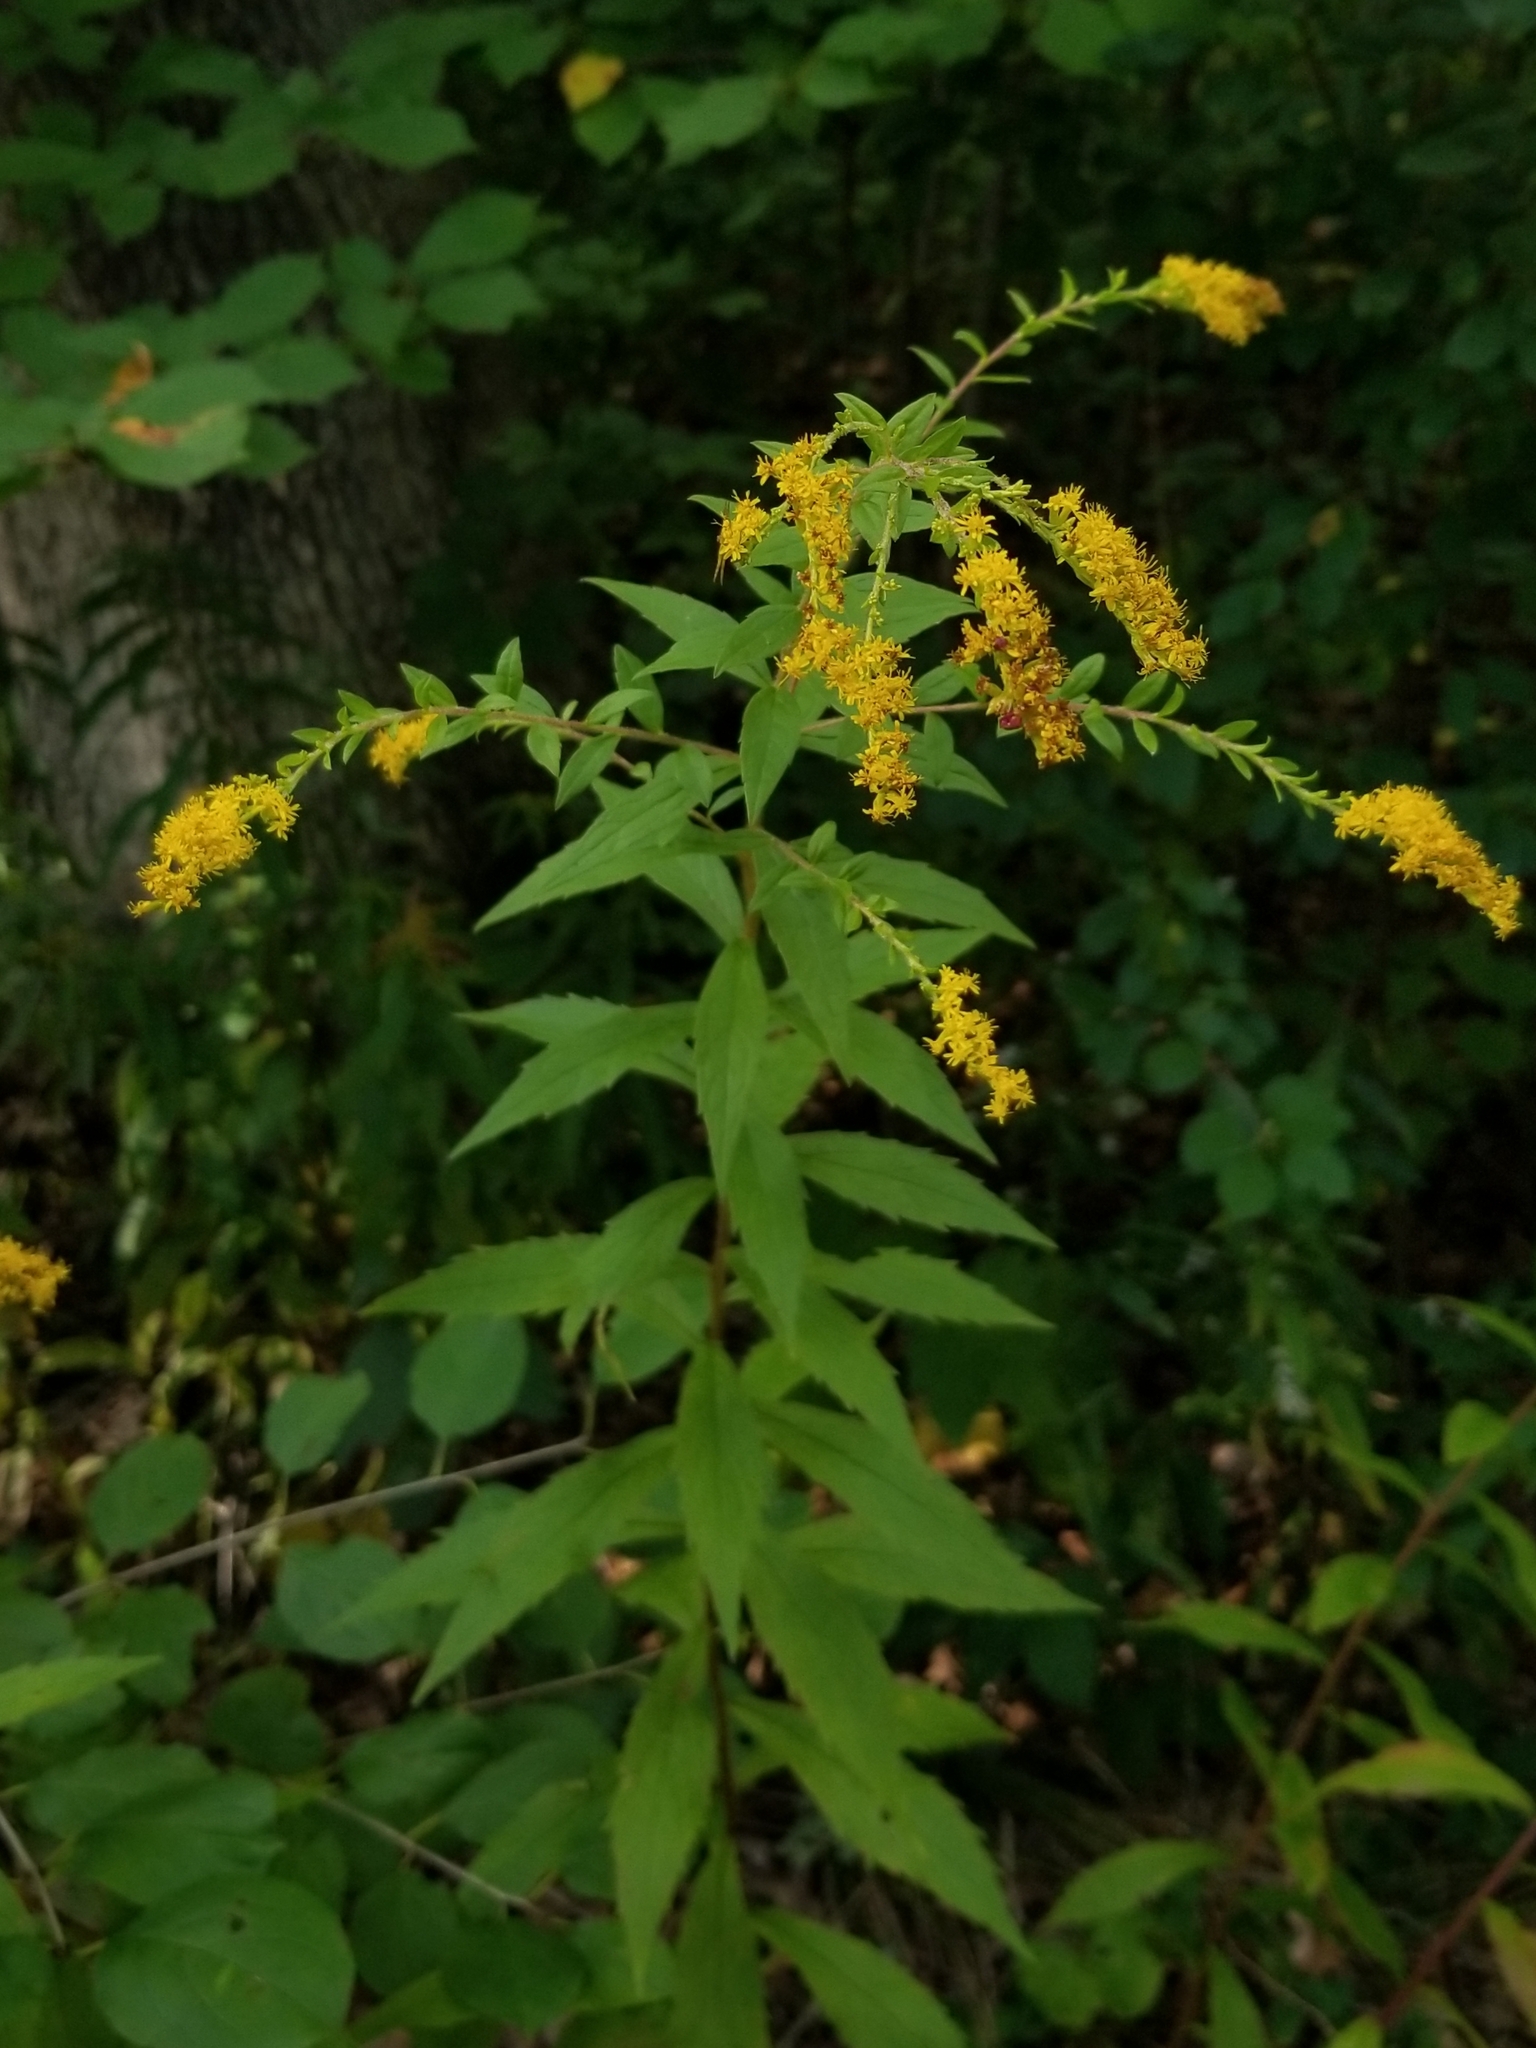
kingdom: Plantae
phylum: Tracheophyta
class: Magnoliopsida
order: Asterales
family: Asteraceae
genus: Solidago
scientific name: Solidago rugosa
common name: Rough-stemmed goldenrod
